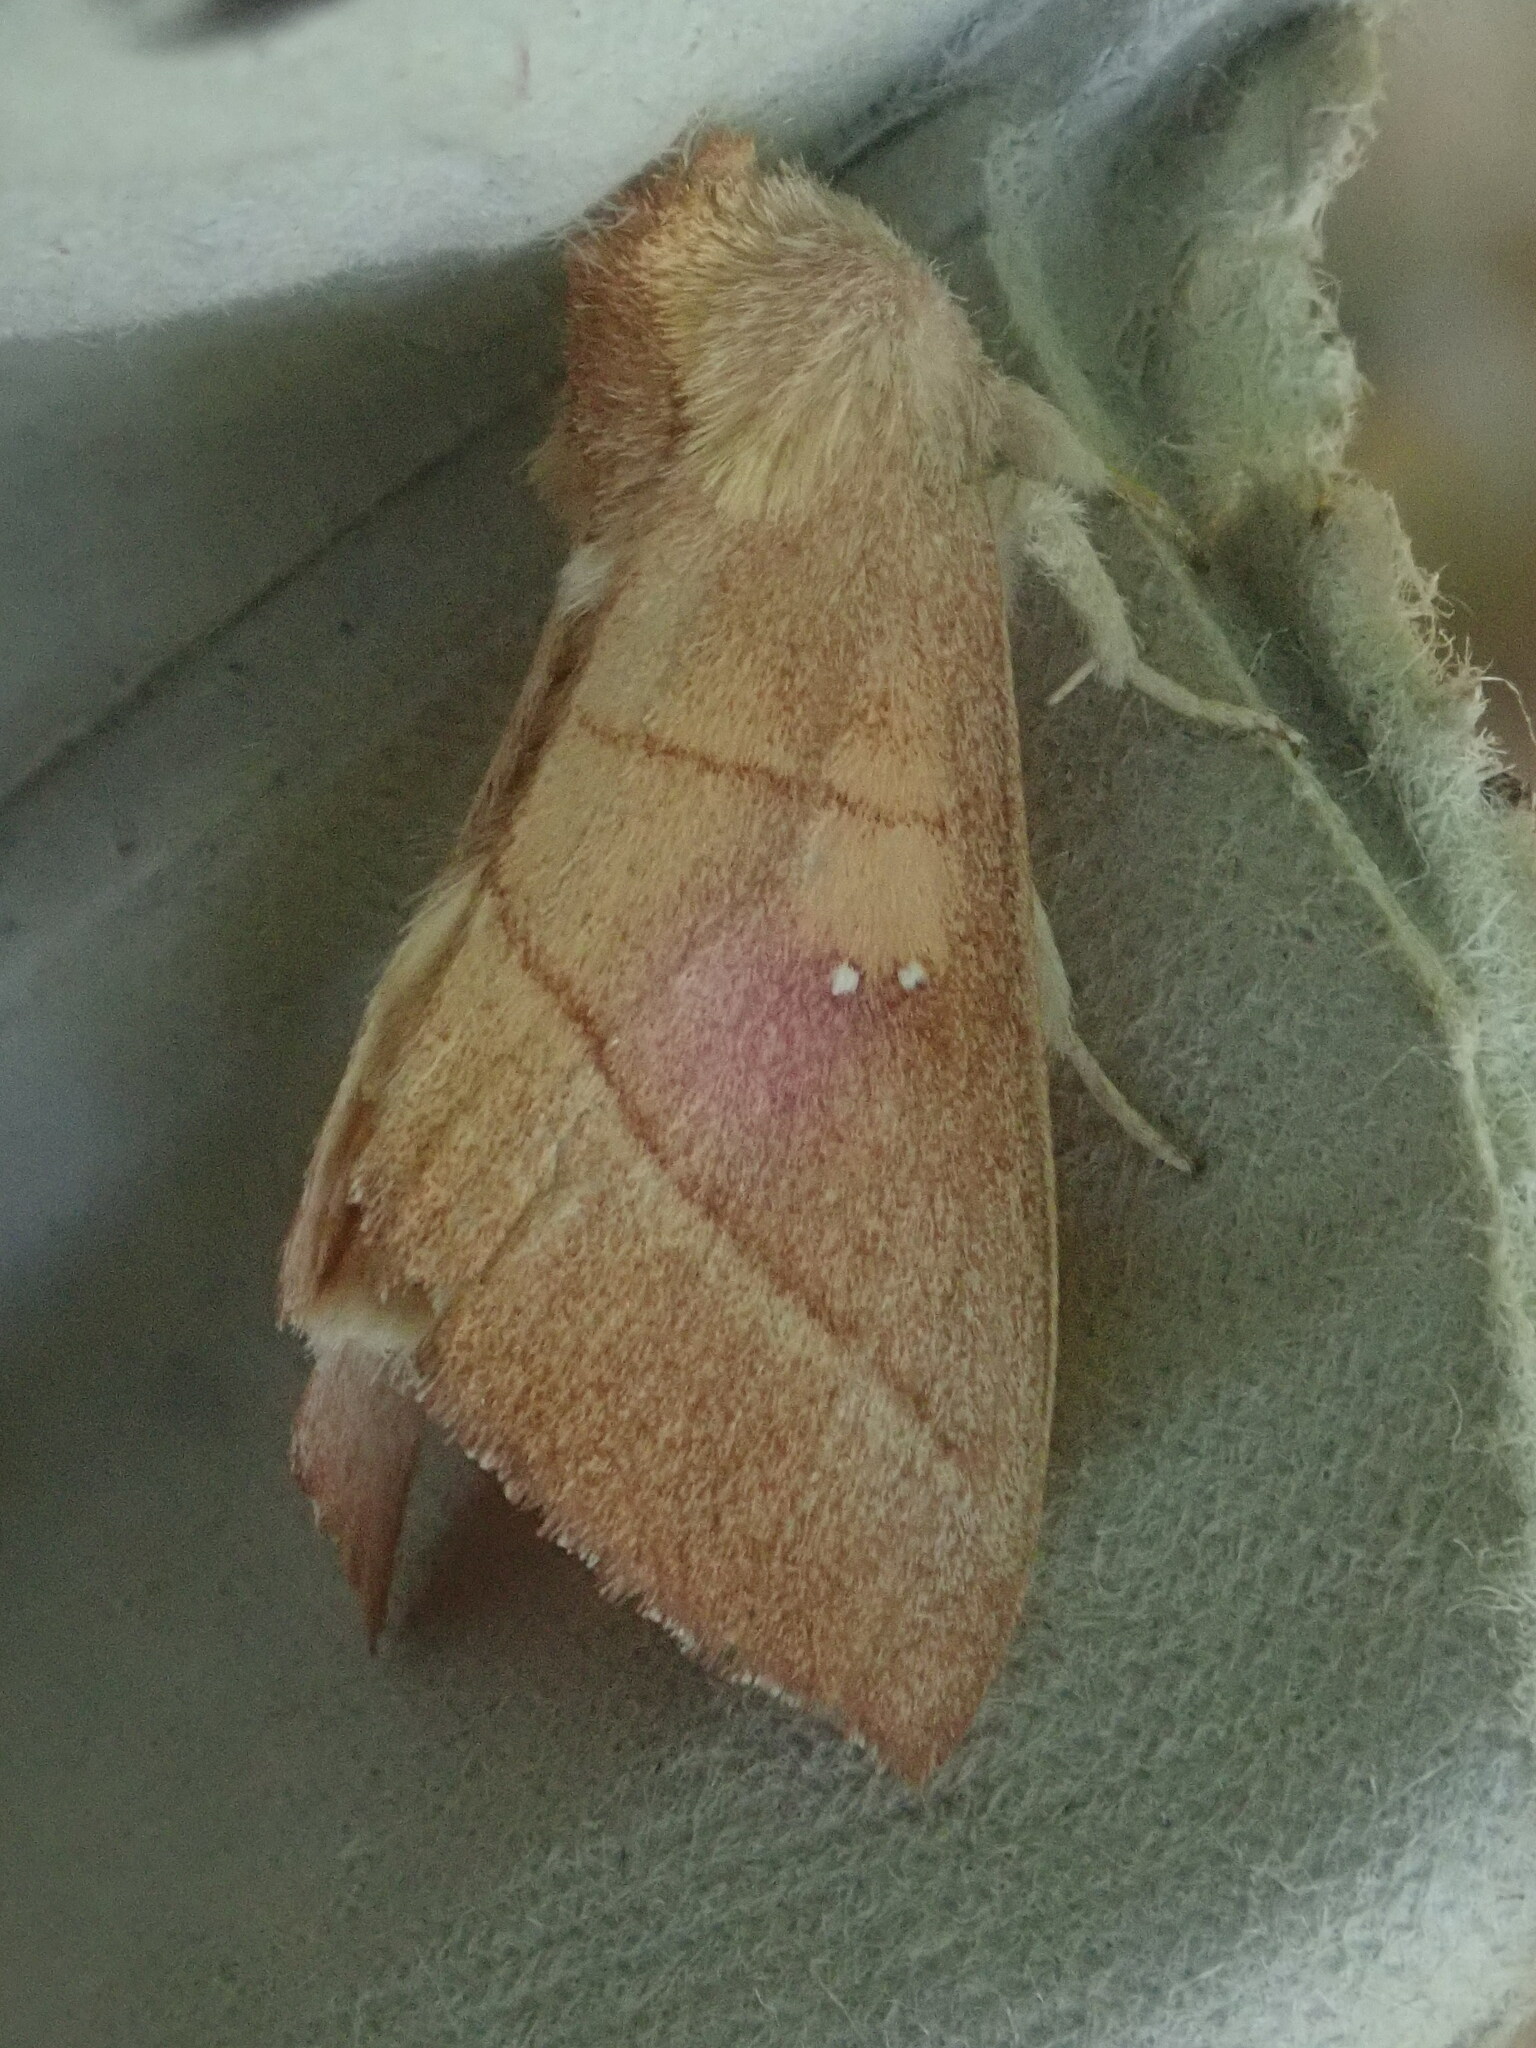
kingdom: Animalia
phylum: Arthropoda
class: Insecta
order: Lepidoptera
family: Notodontidae
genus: Nadata
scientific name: Nadata gibbosa
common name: White-dotted prominent
